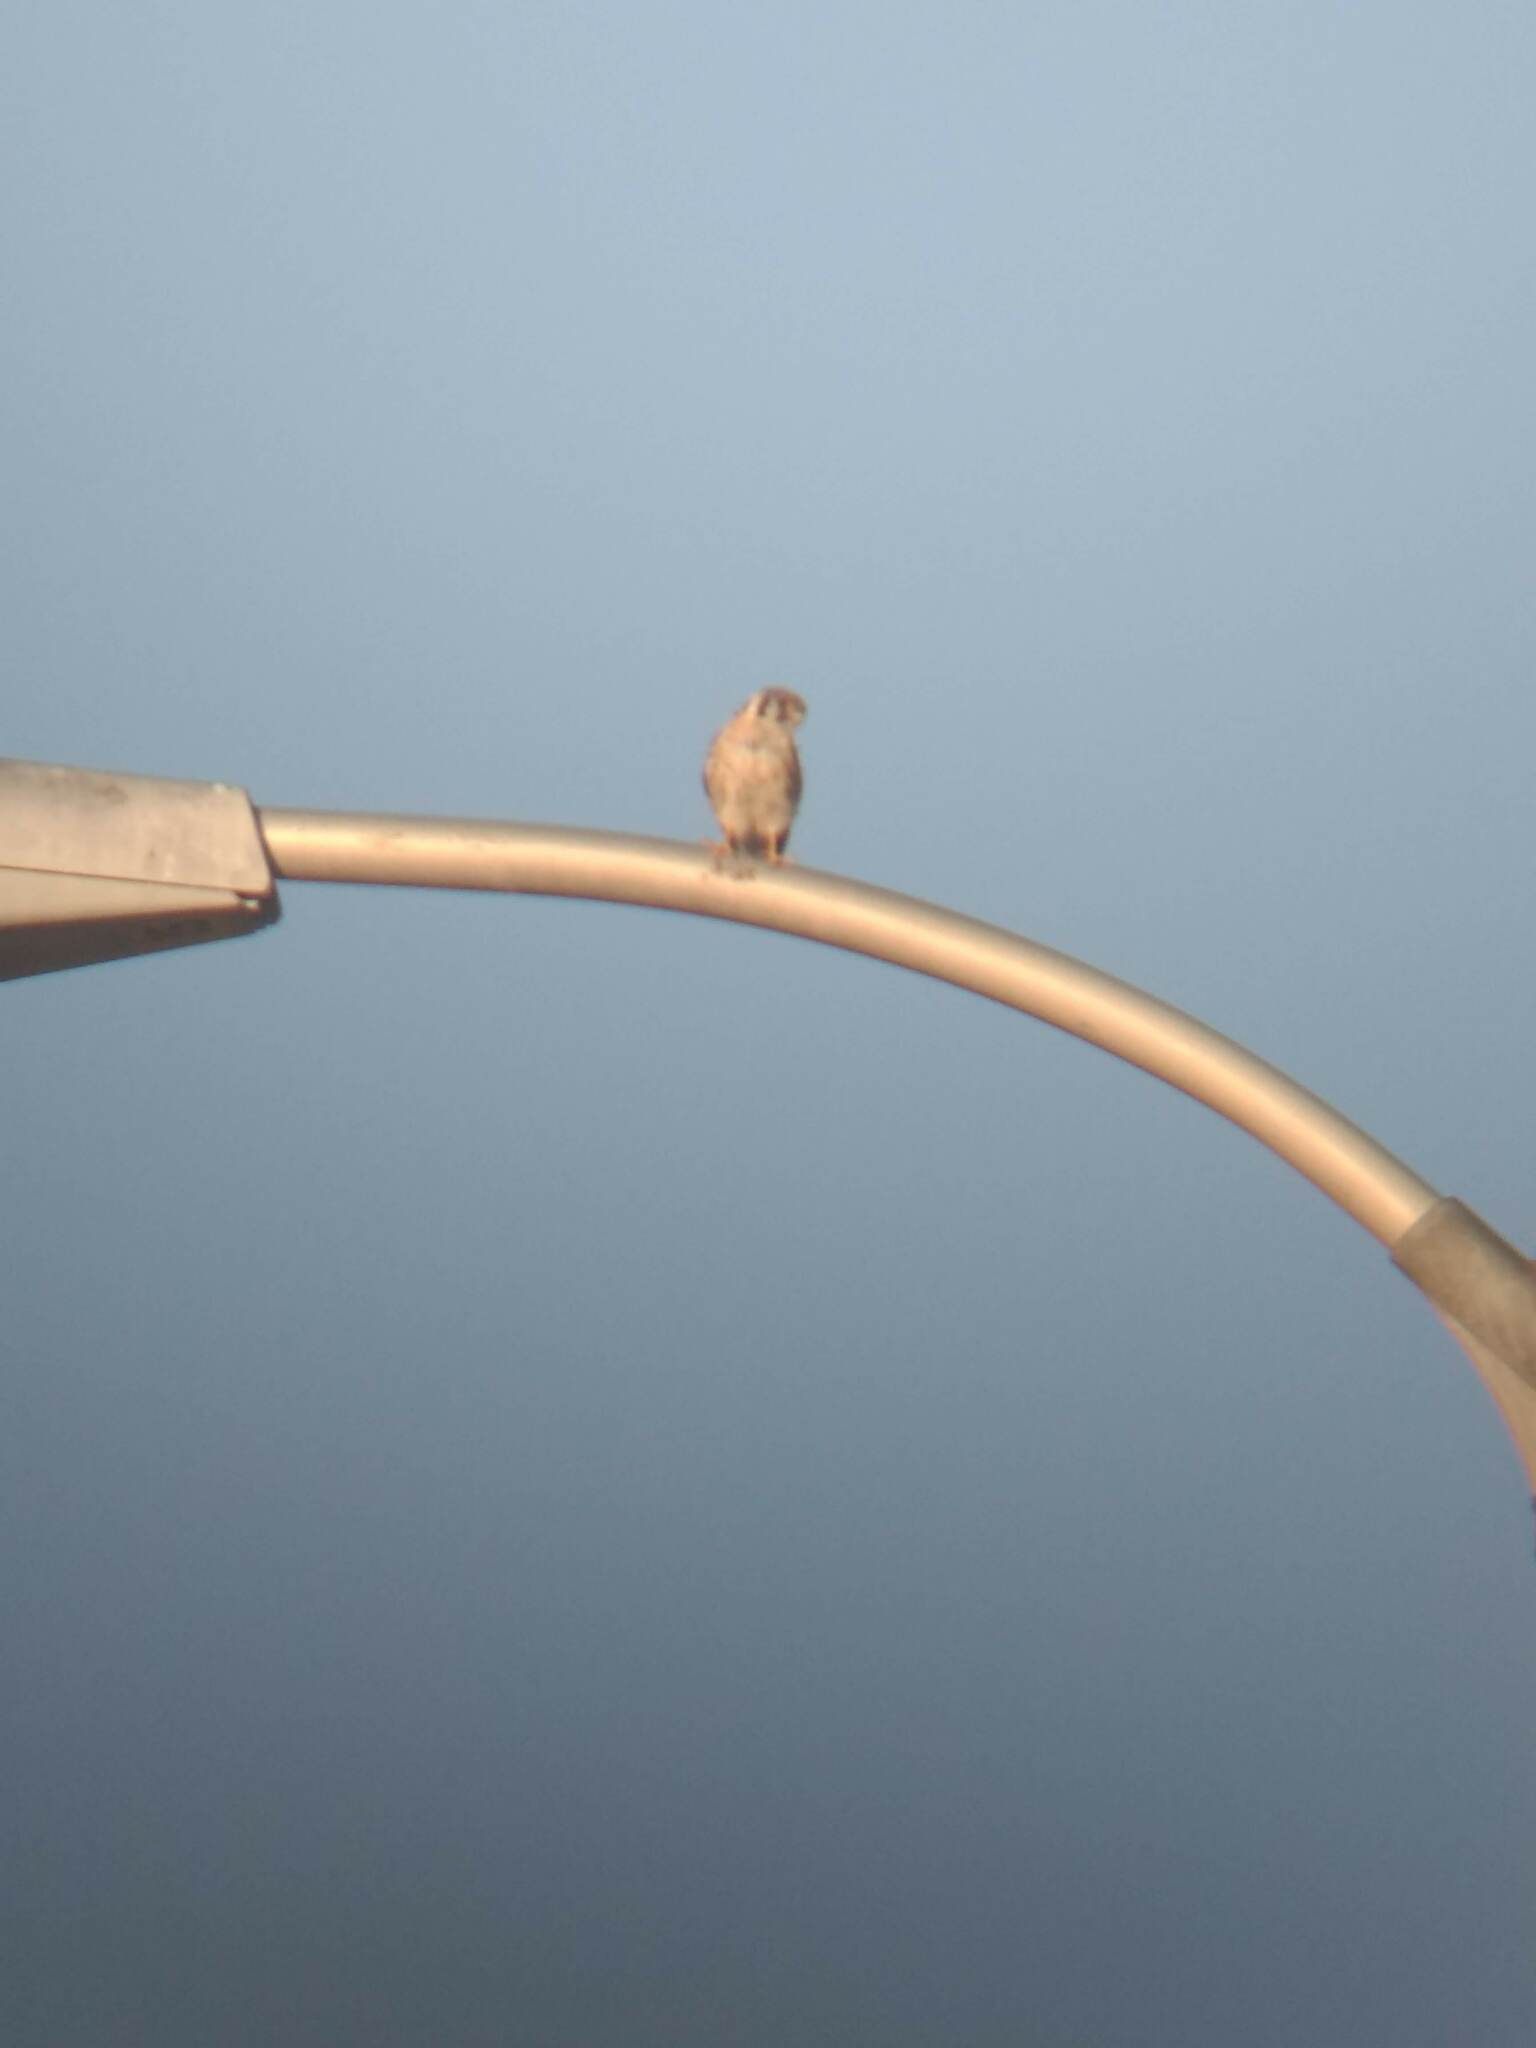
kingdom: Animalia
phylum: Chordata
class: Aves
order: Falconiformes
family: Falconidae
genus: Falco
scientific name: Falco sparverius
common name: American kestrel
